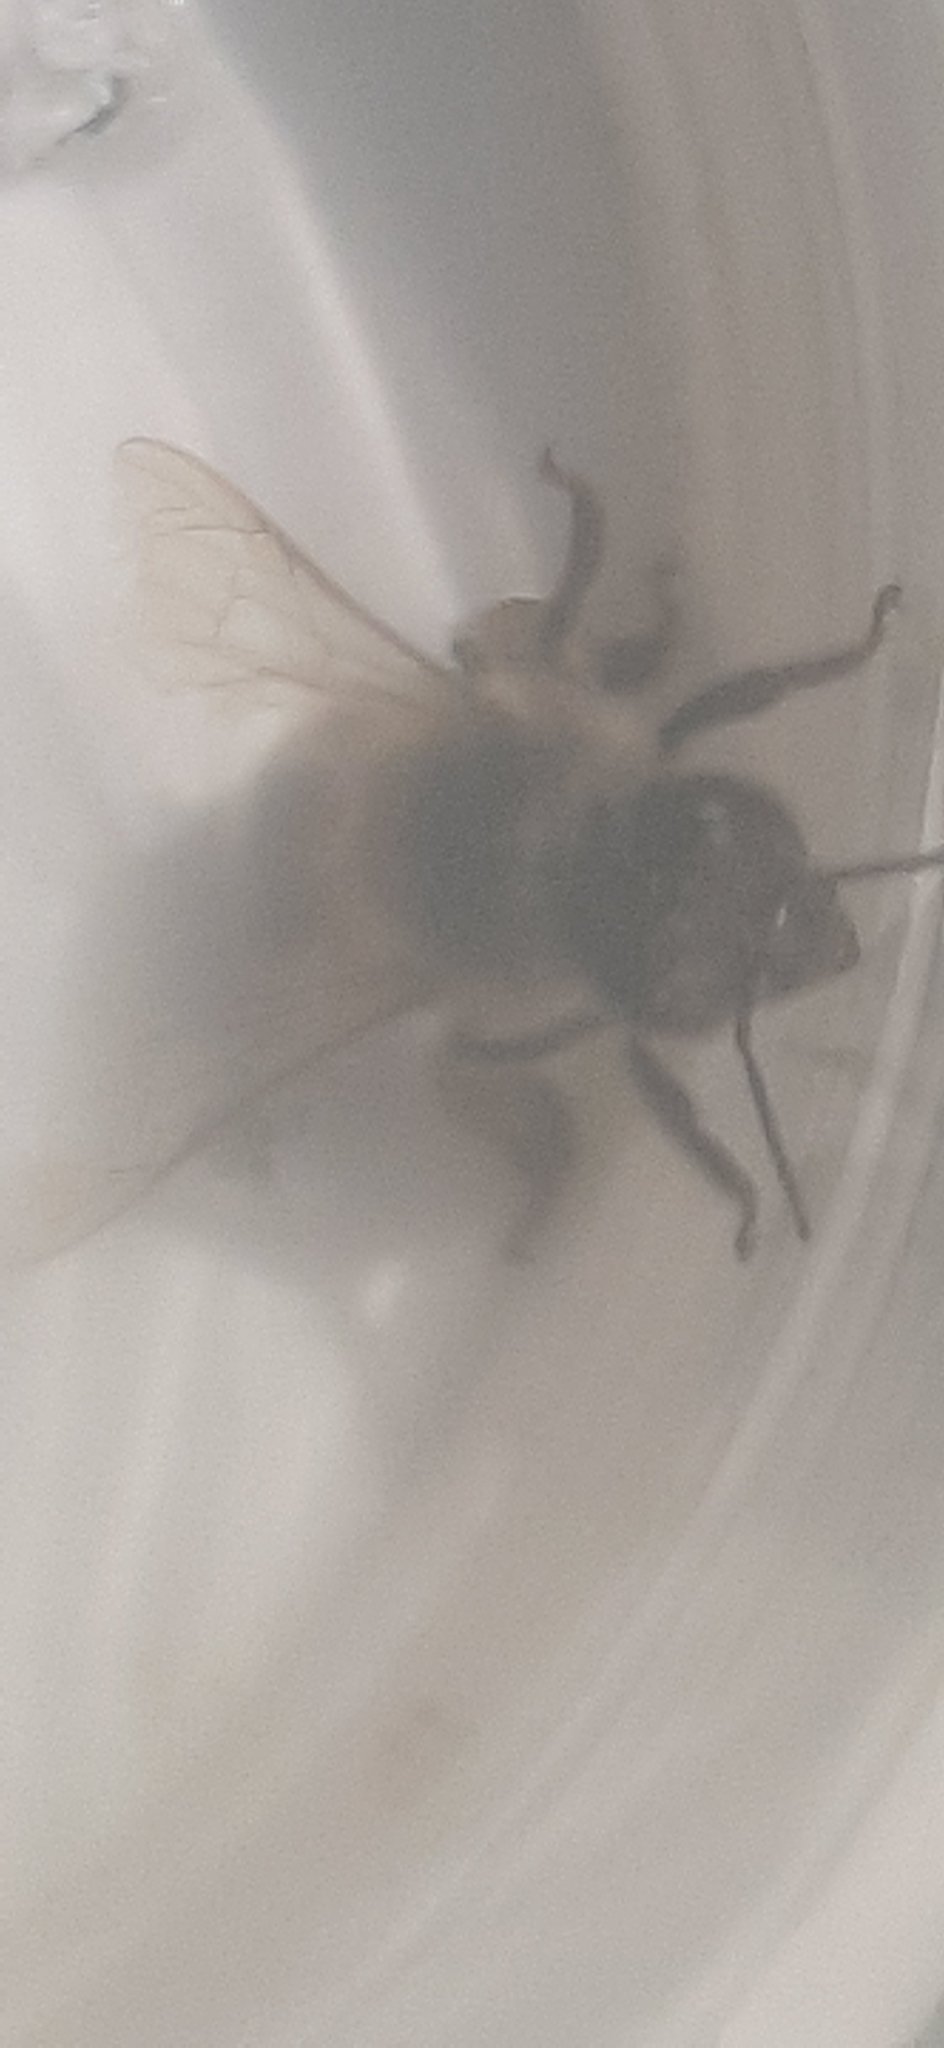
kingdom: Animalia
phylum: Arthropoda
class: Insecta
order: Hymenoptera
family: Apidae
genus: Apis
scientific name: Apis mellifera
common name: Honey bee
